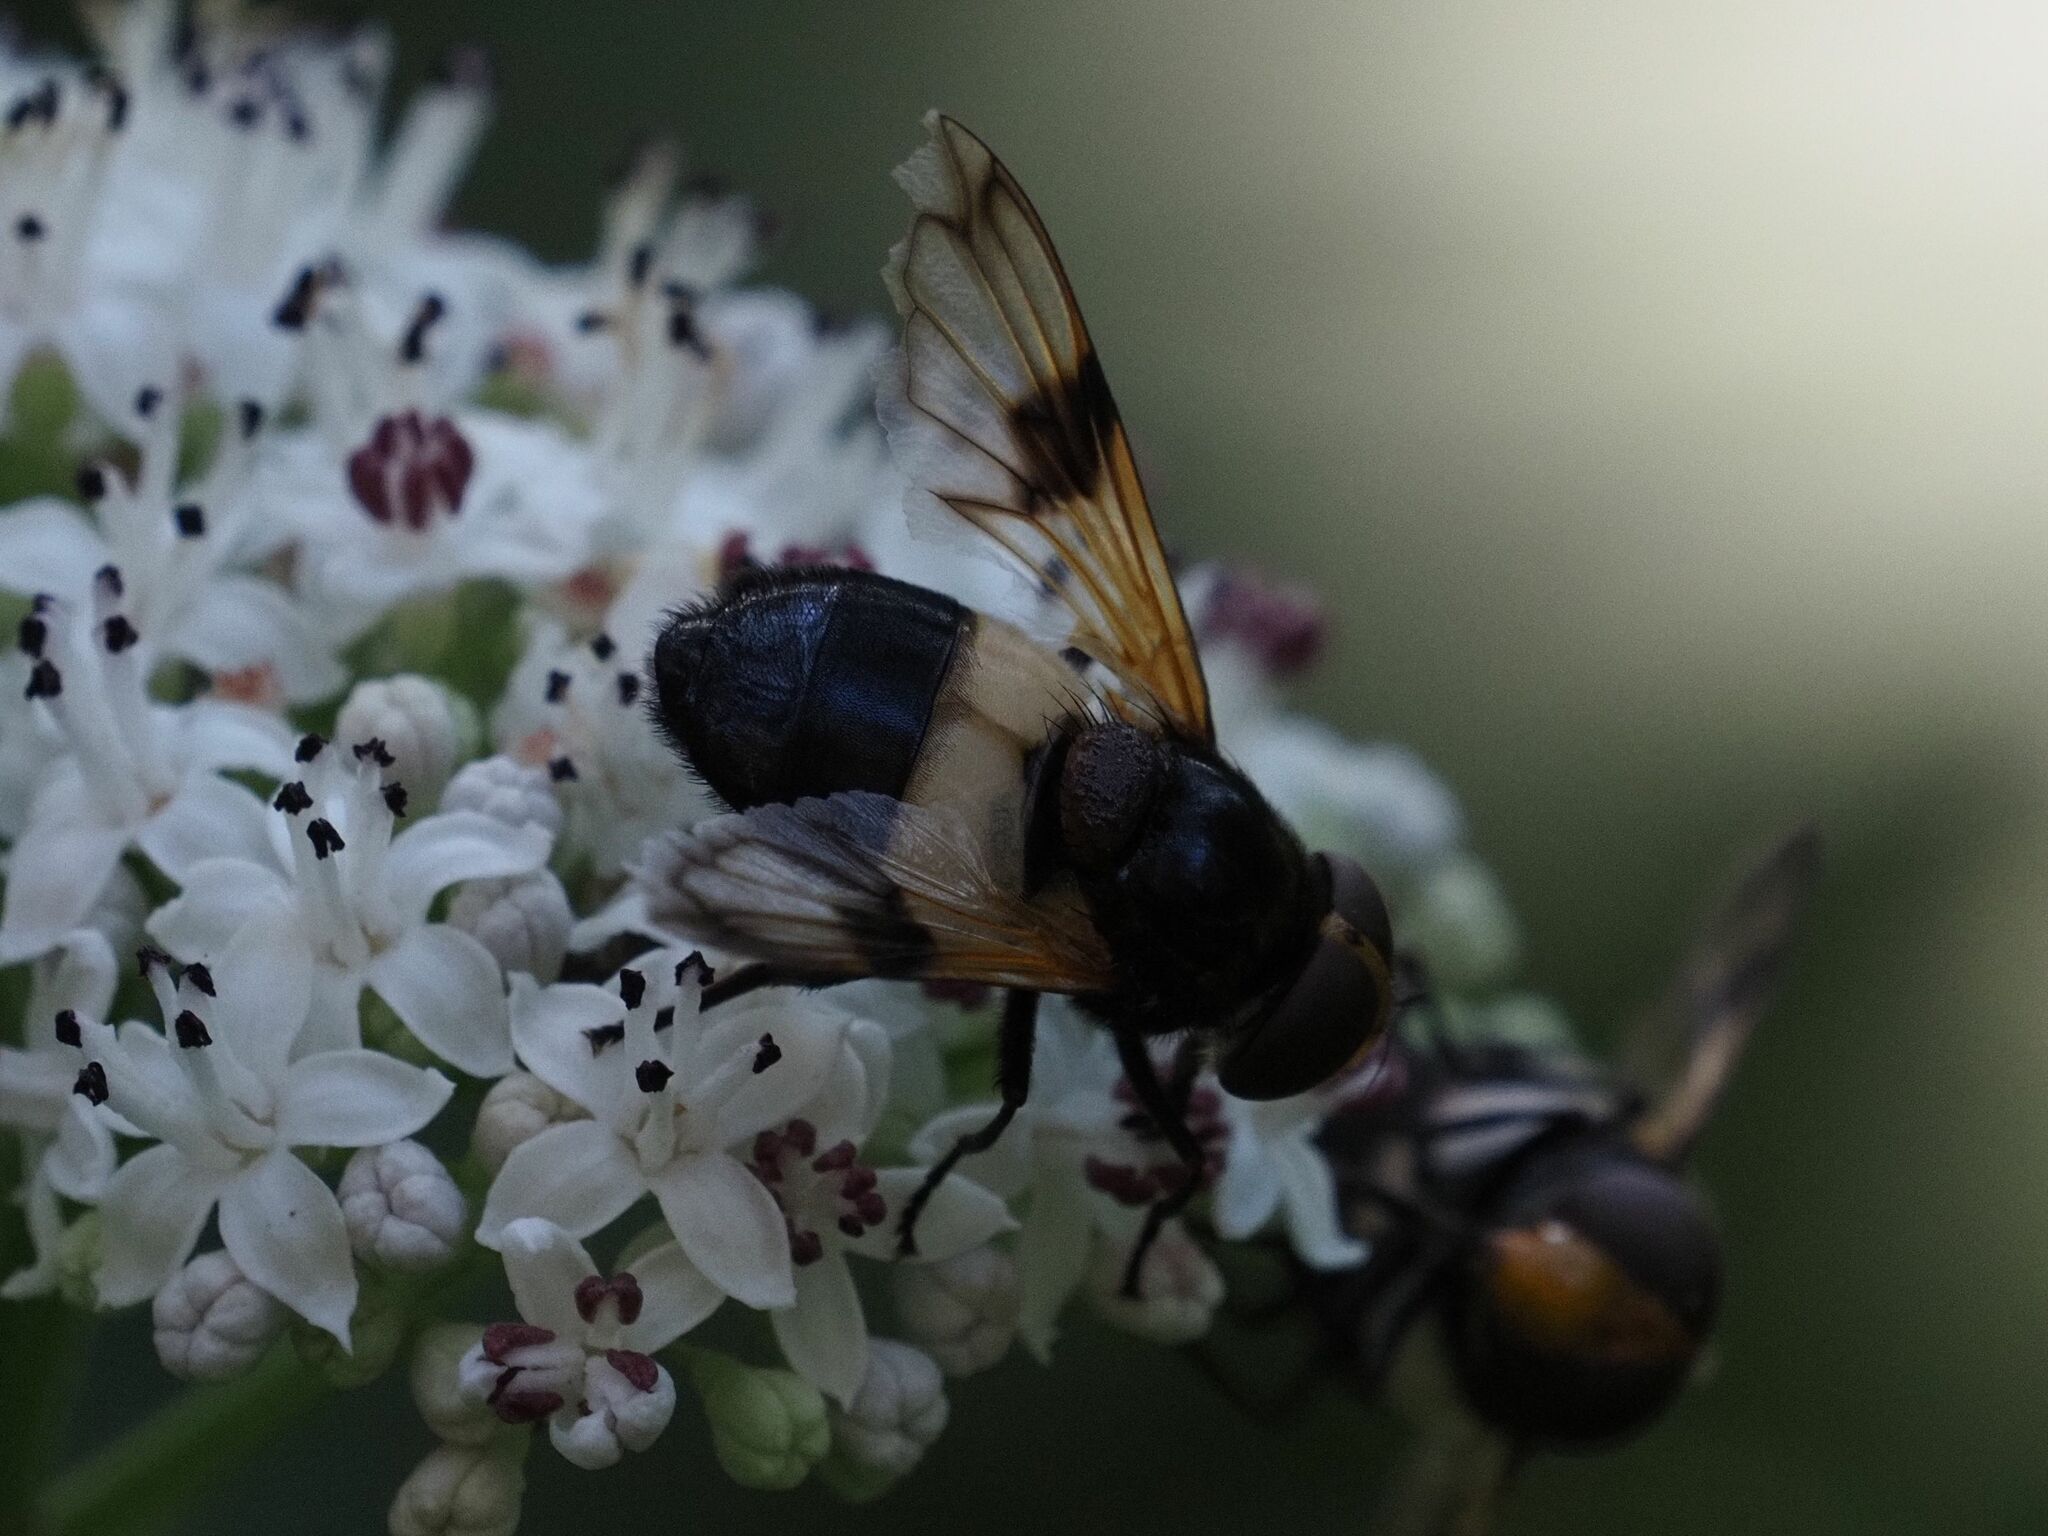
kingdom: Animalia
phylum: Arthropoda
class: Insecta
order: Diptera
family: Syrphidae
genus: Volucella
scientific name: Volucella pellucens
